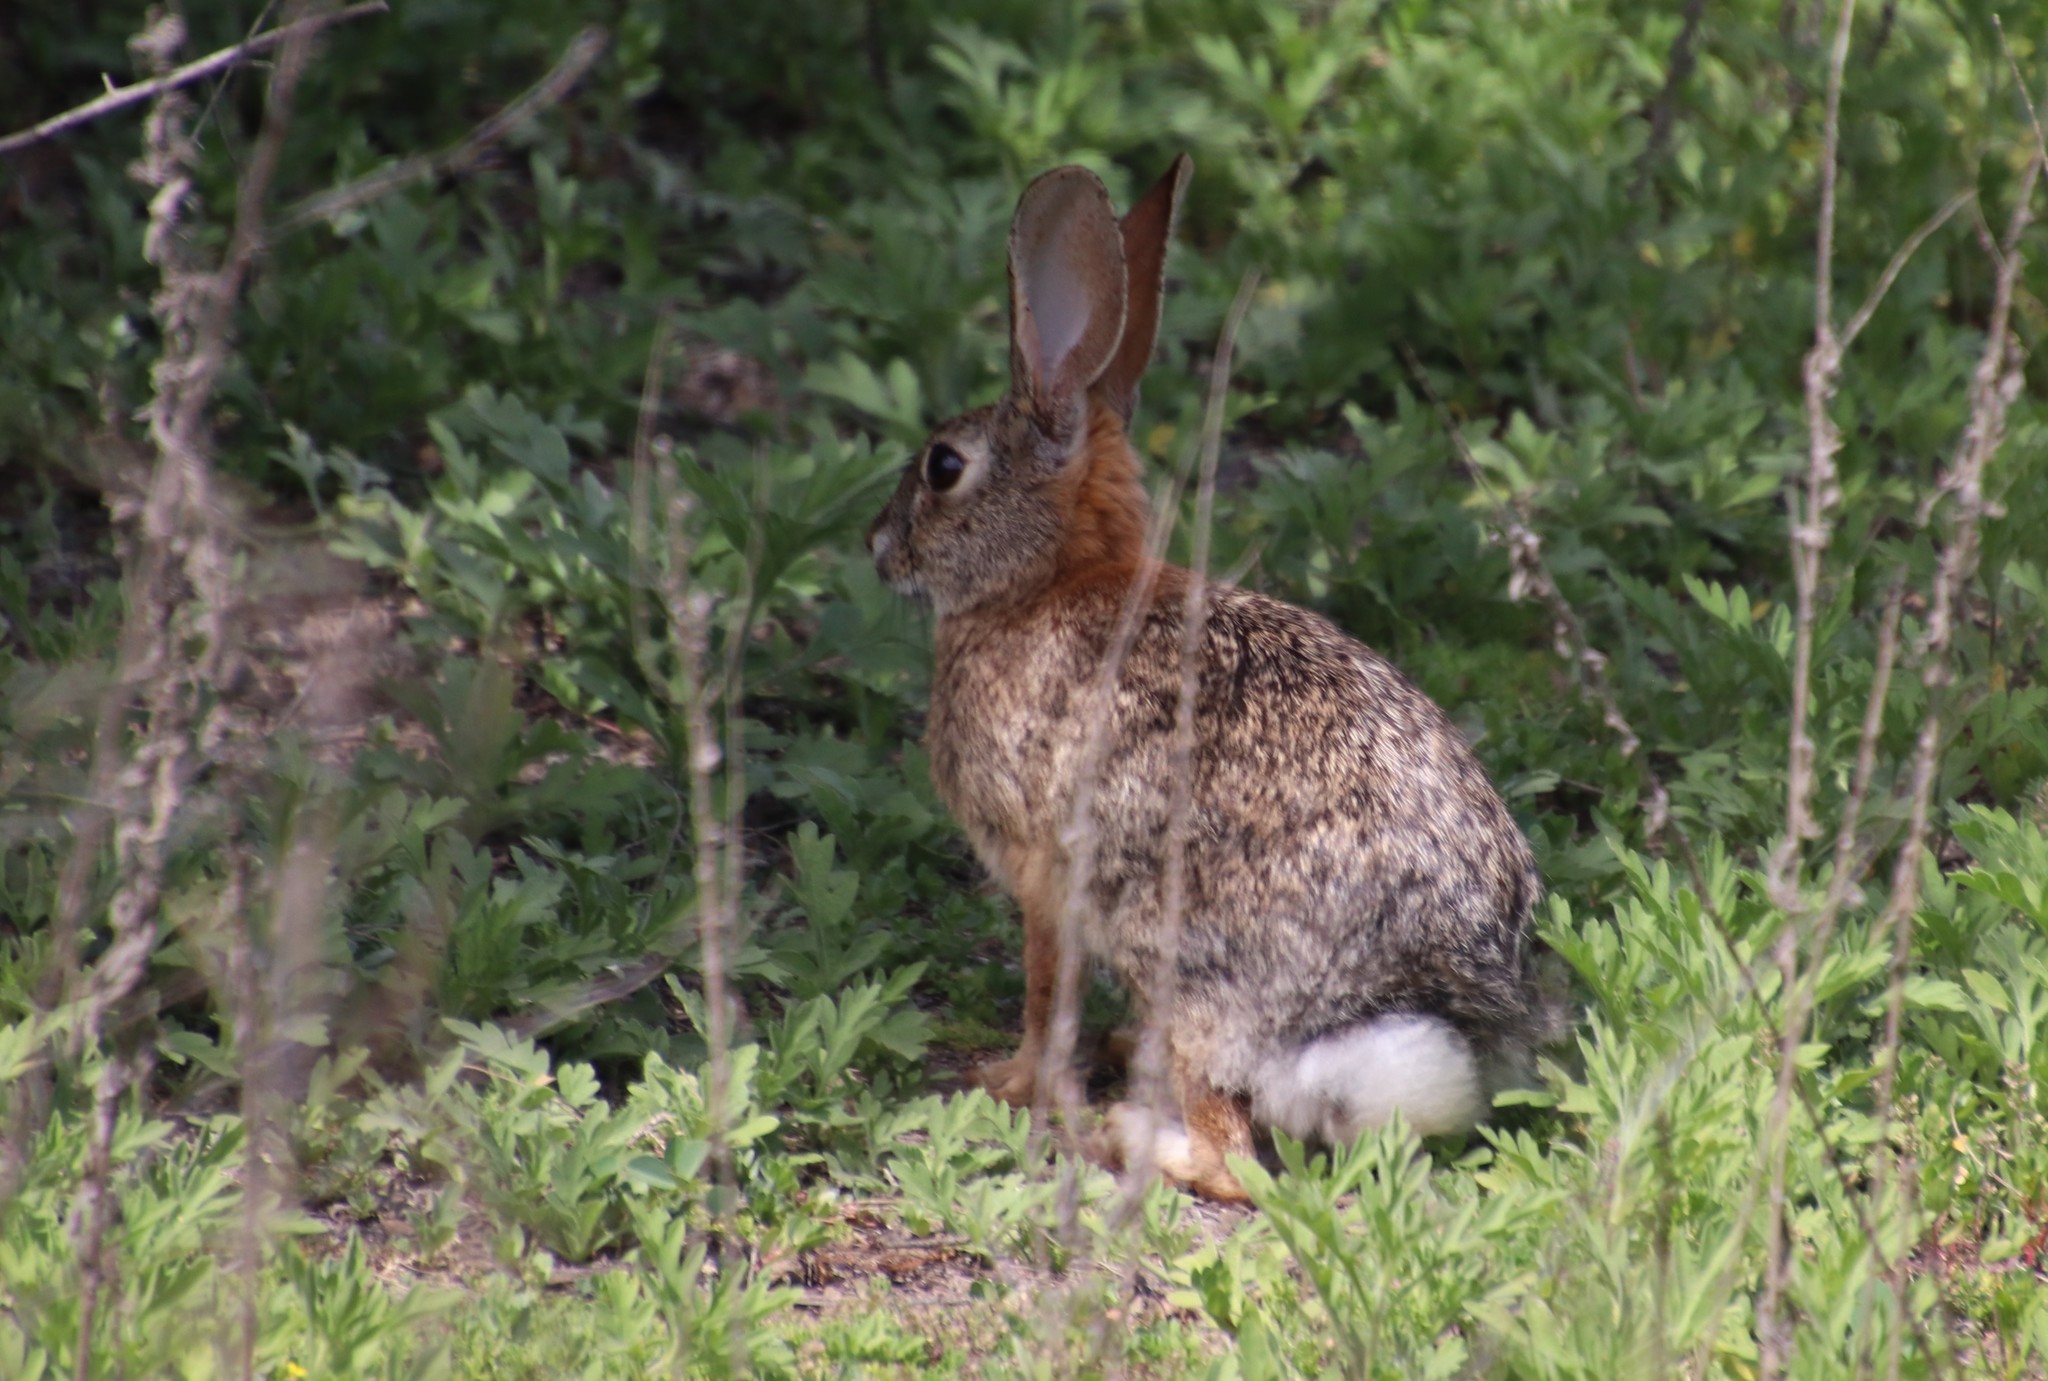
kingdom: Animalia
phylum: Chordata
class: Mammalia
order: Lagomorpha
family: Leporidae
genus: Sylvilagus
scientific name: Sylvilagus audubonii
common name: Desert cottontail
